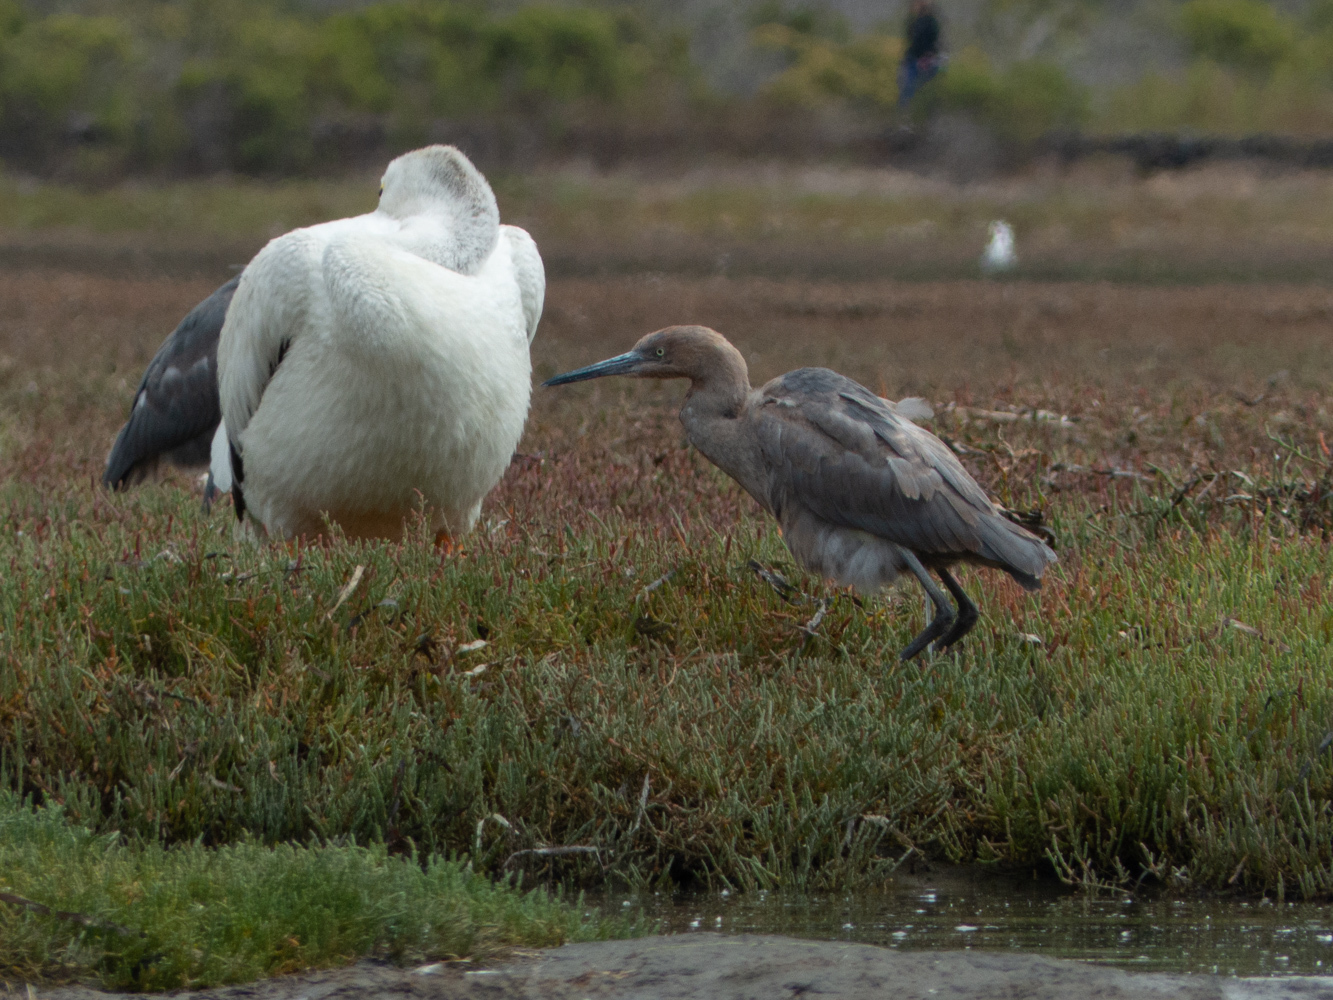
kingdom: Animalia
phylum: Chordata
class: Aves
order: Pelecaniformes
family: Ardeidae
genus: Egretta
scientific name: Egretta rufescens
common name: Reddish egret
